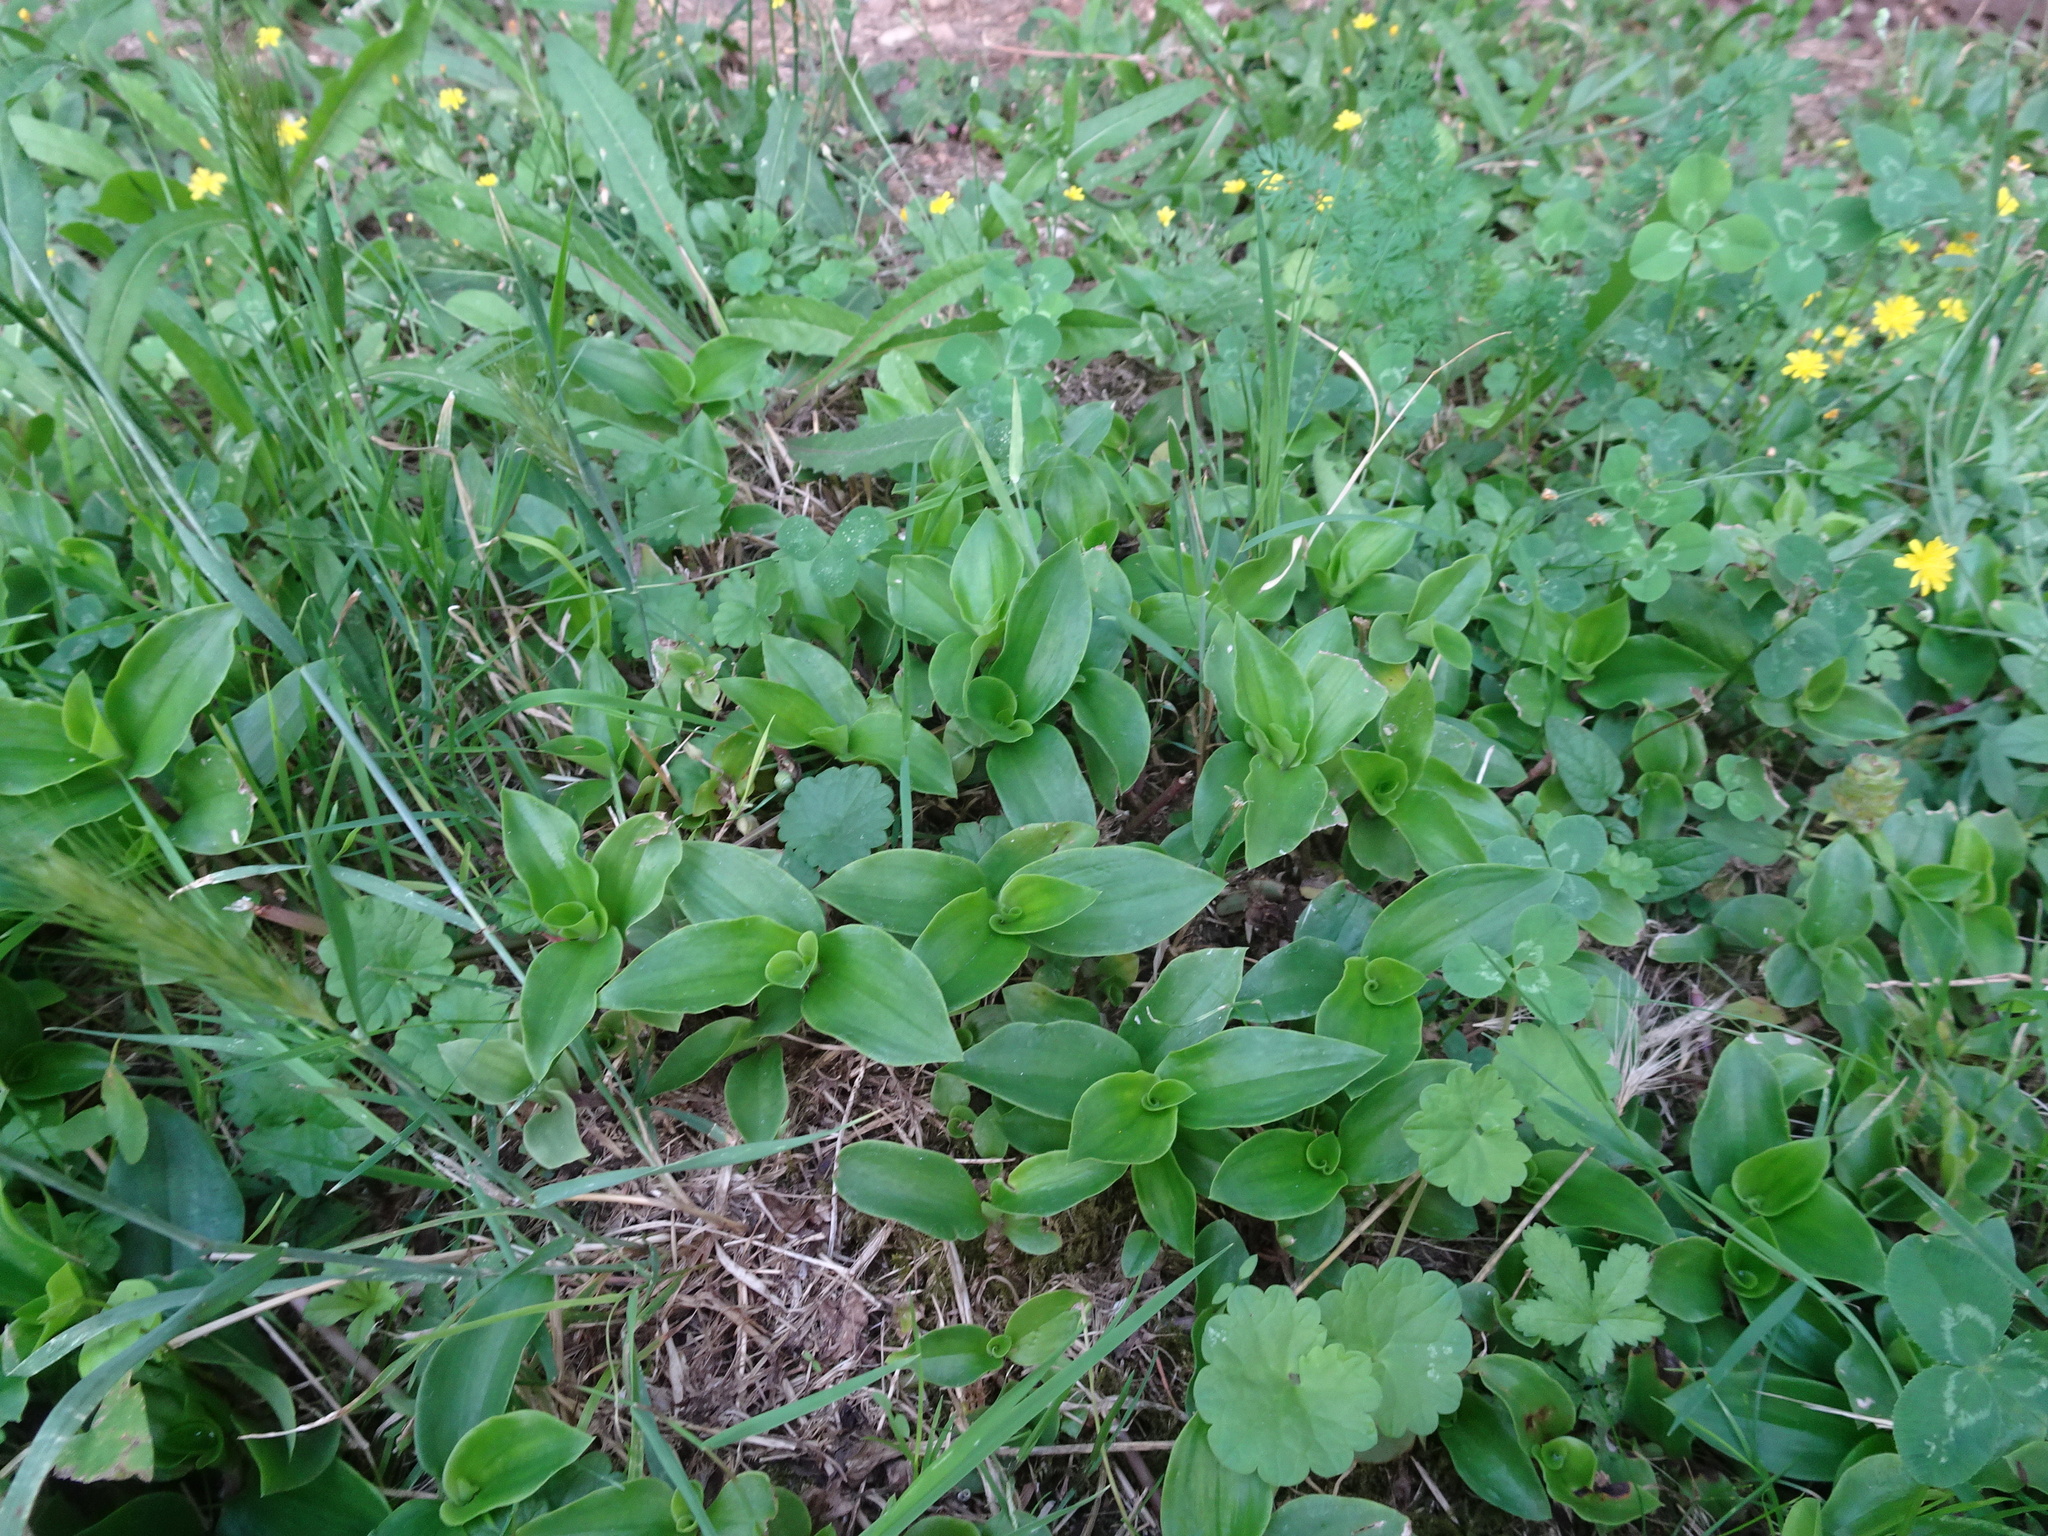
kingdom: Plantae
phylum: Tracheophyta
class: Liliopsida
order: Commelinales
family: Commelinaceae
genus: Tradescantia
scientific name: Tradescantia fluminensis
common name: Wandering-jew
